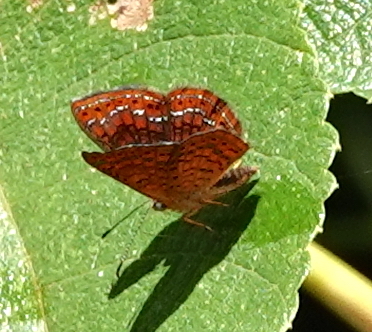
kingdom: Animalia
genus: Calephelis
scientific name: Calephelis laverna
